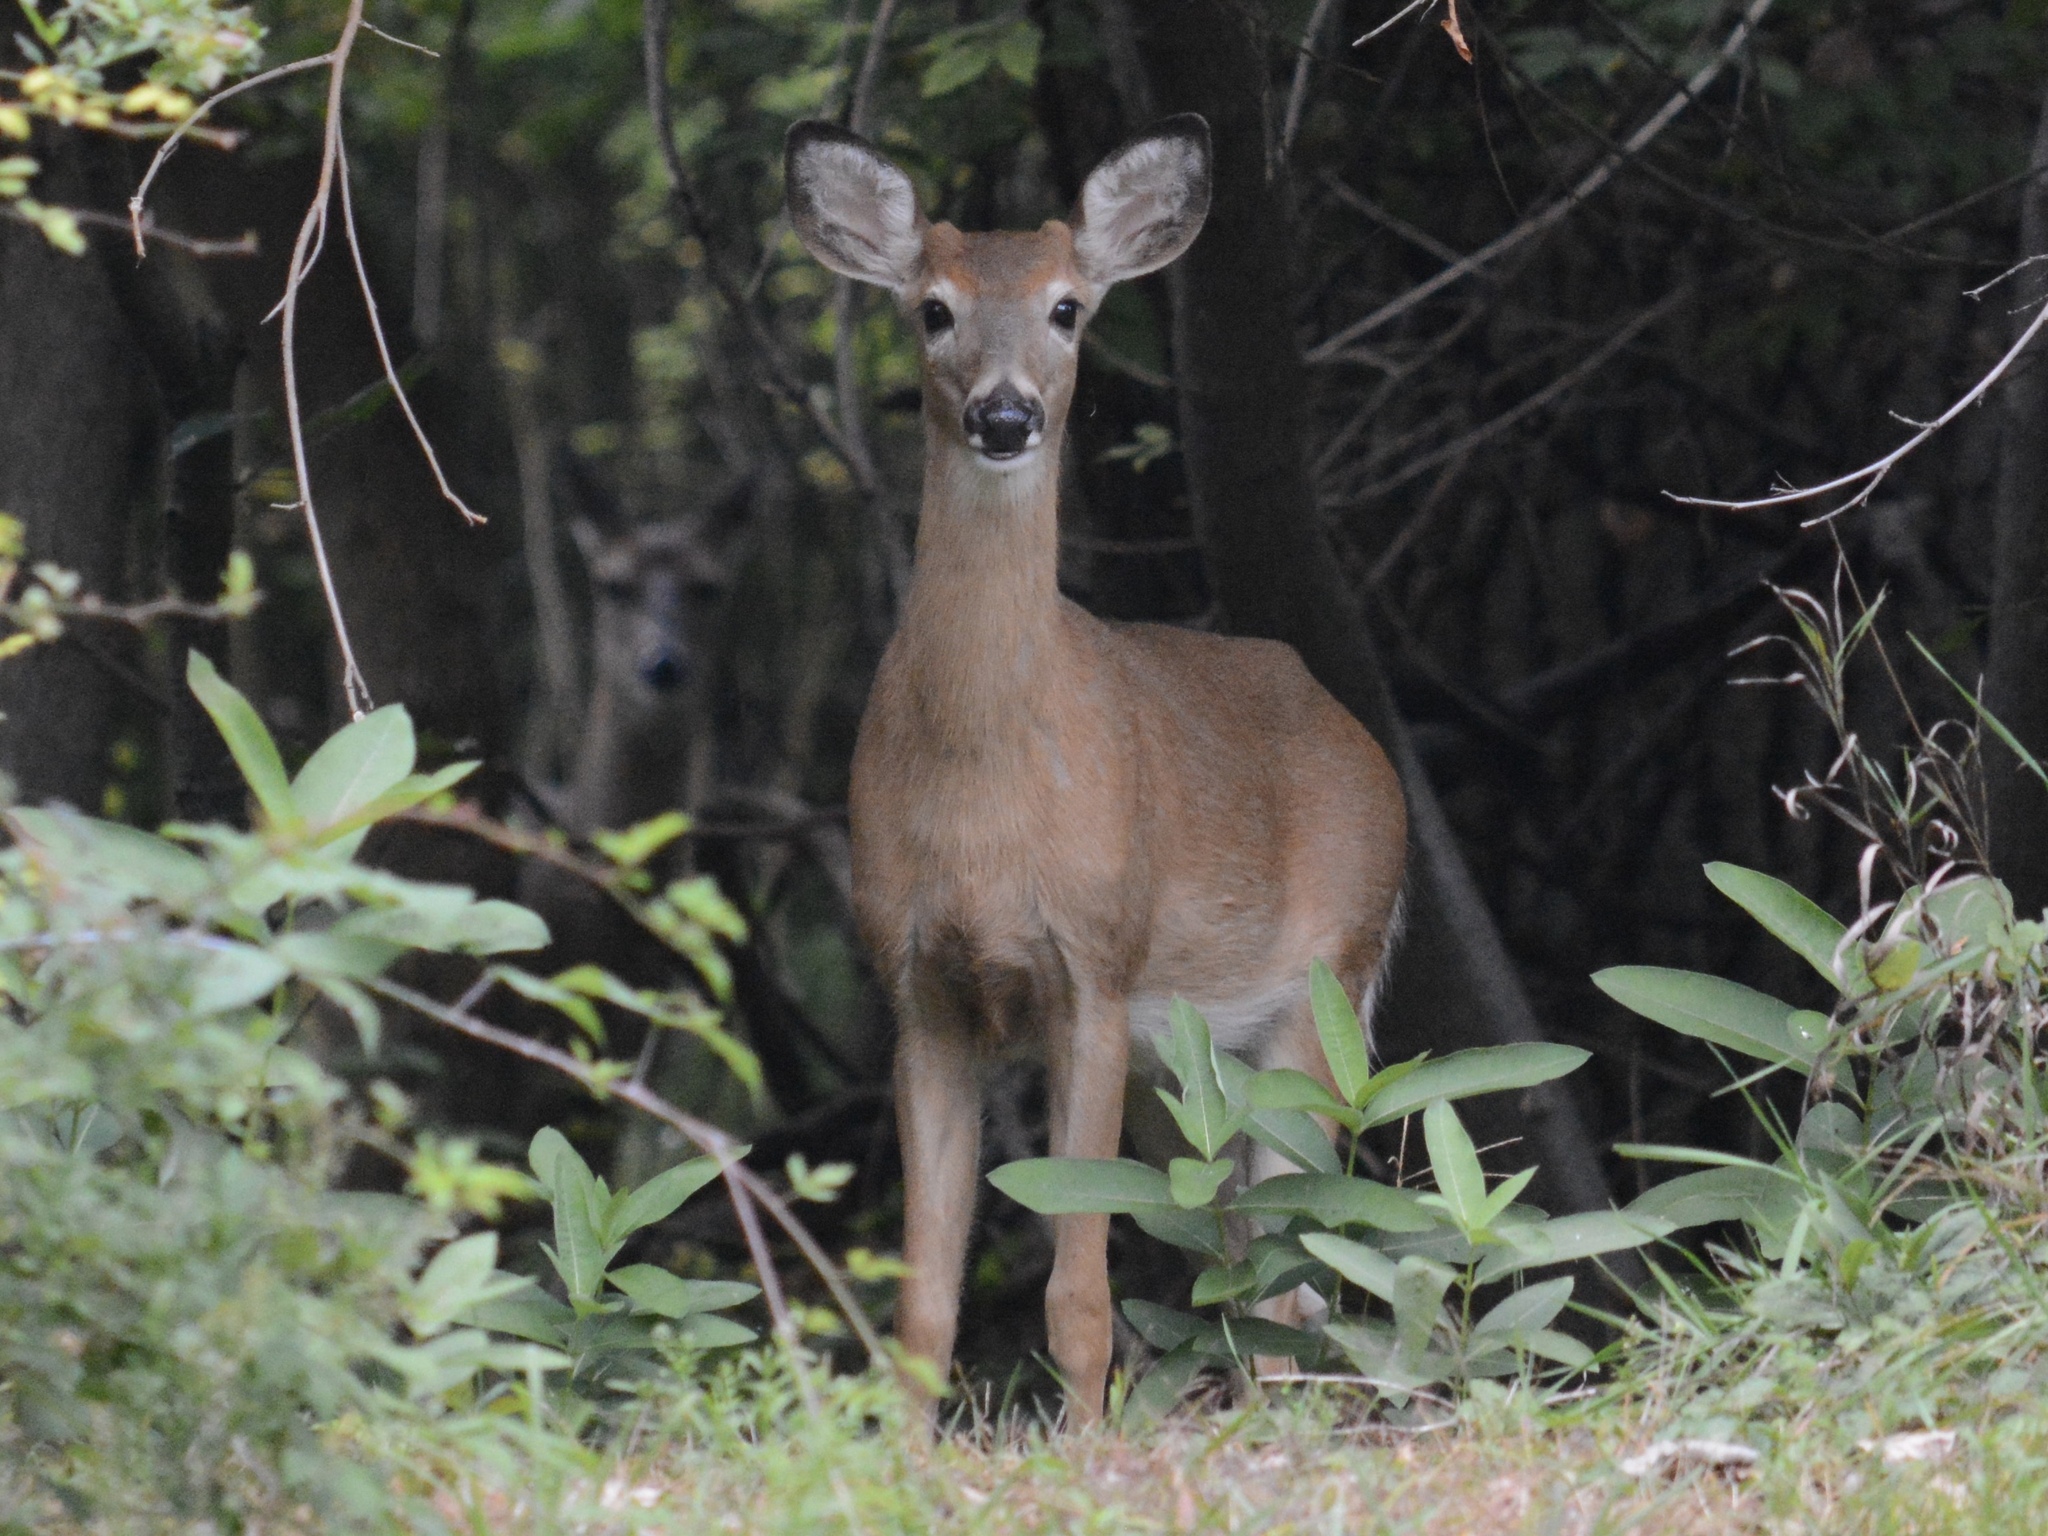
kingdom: Animalia
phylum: Chordata
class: Mammalia
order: Artiodactyla
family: Cervidae
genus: Odocoileus
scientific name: Odocoileus virginianus
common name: White-tailed deer
